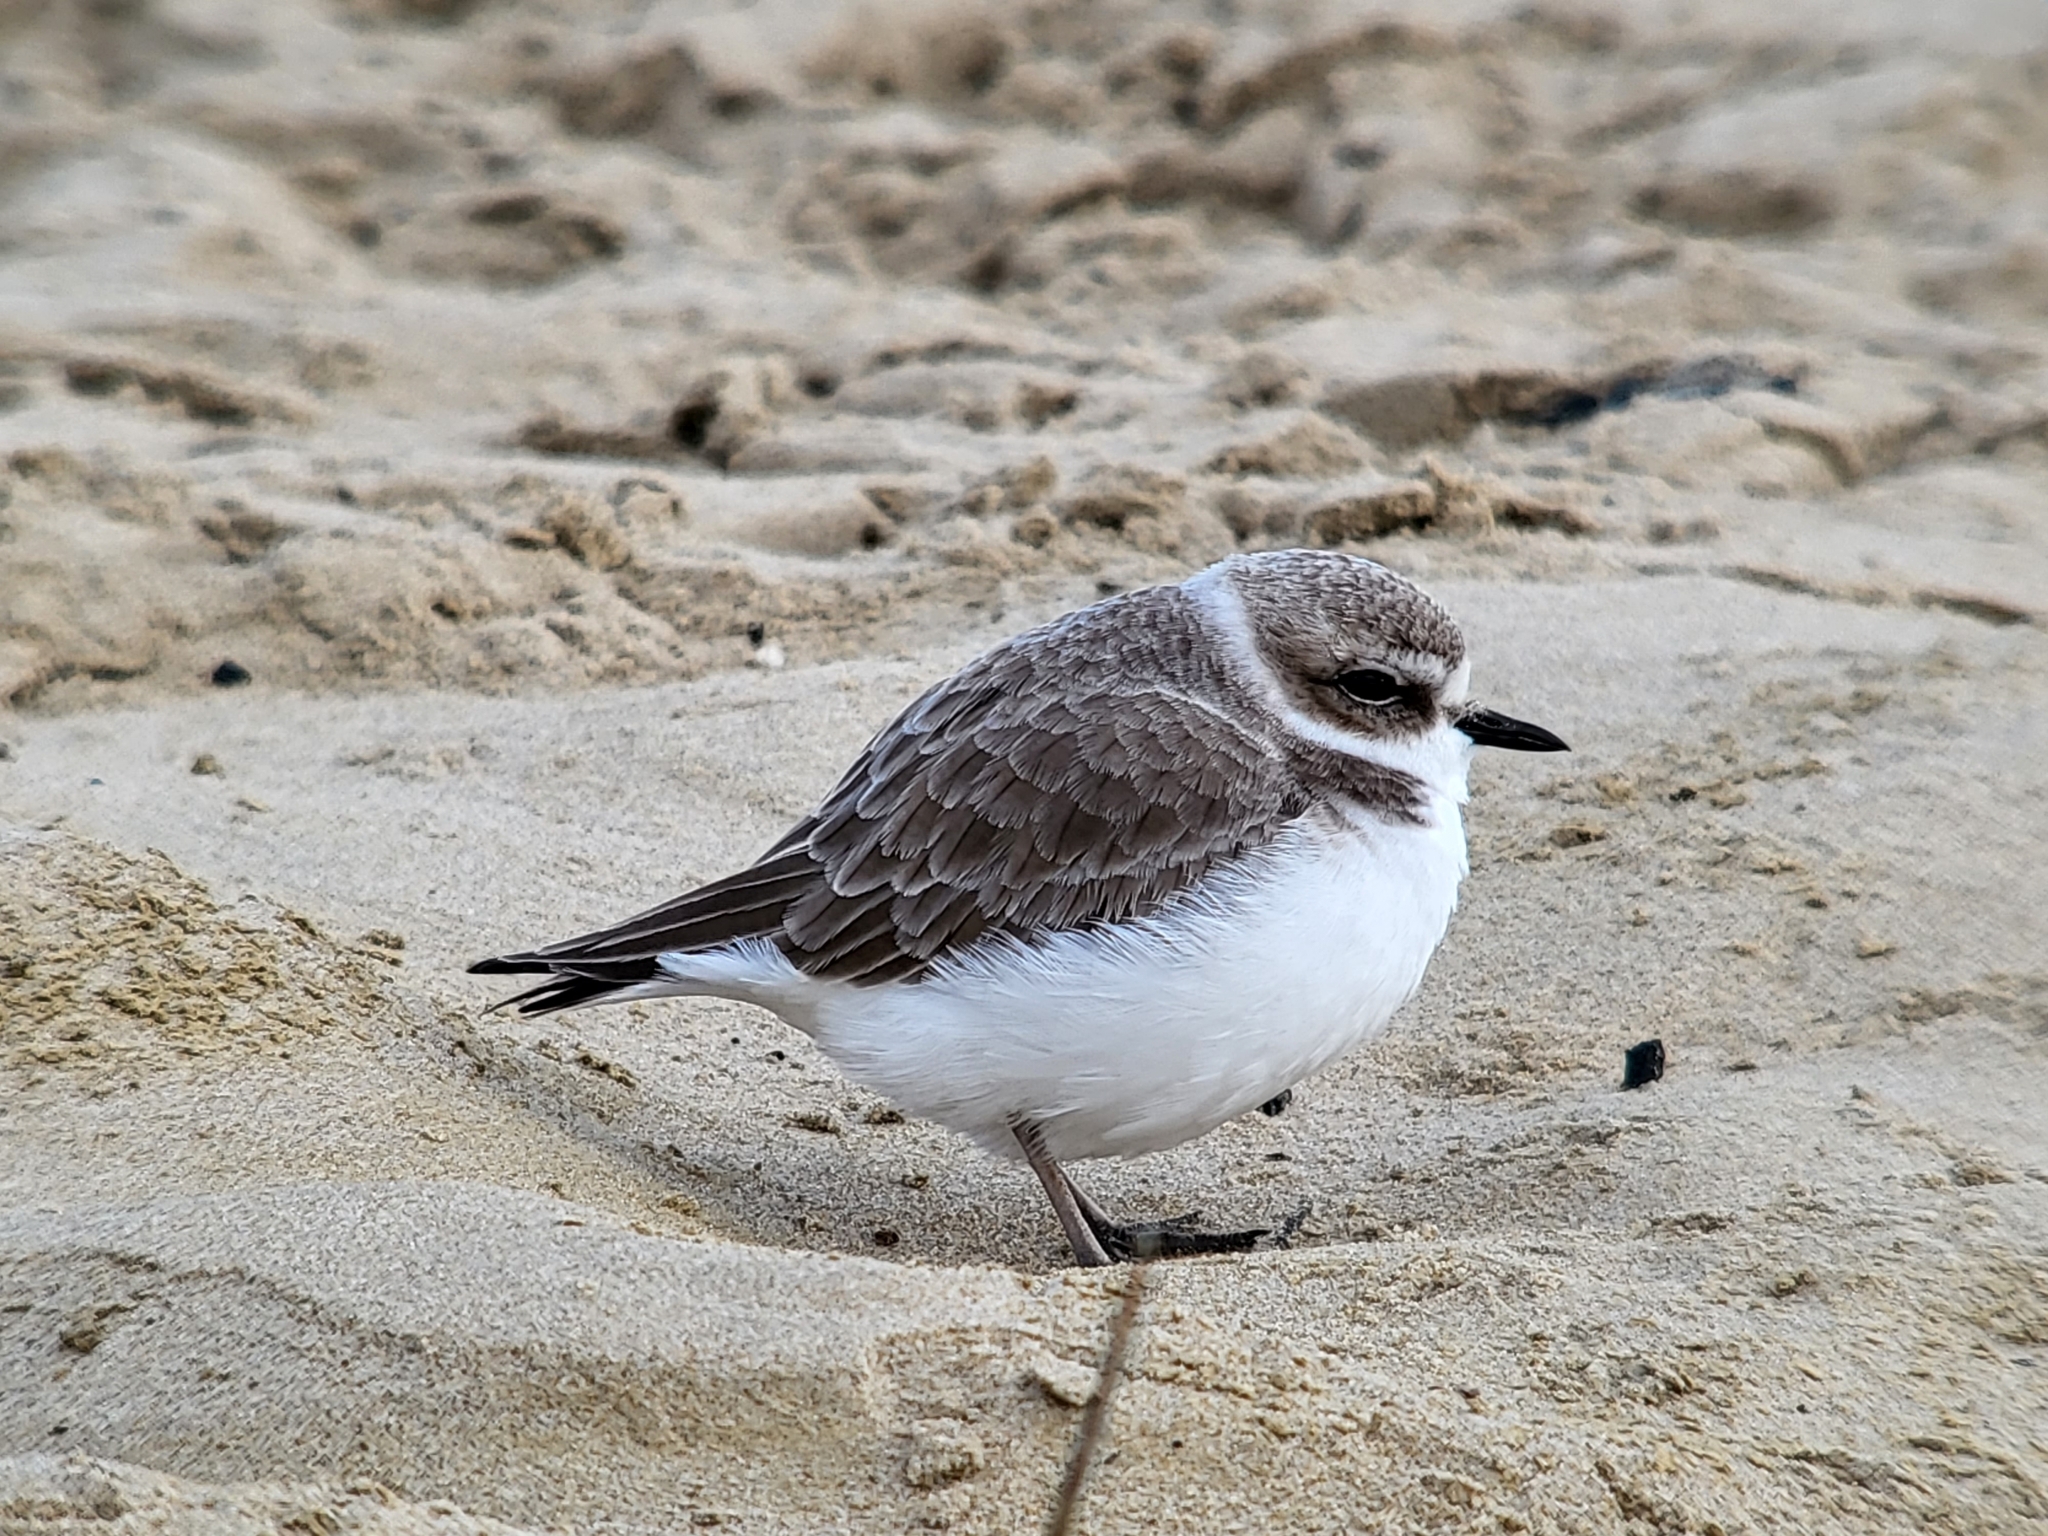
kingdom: Animalia
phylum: Chordata
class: Aves
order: Charadriiformes
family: Charadriidae
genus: Anarhynchus
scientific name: Anarhynchus
